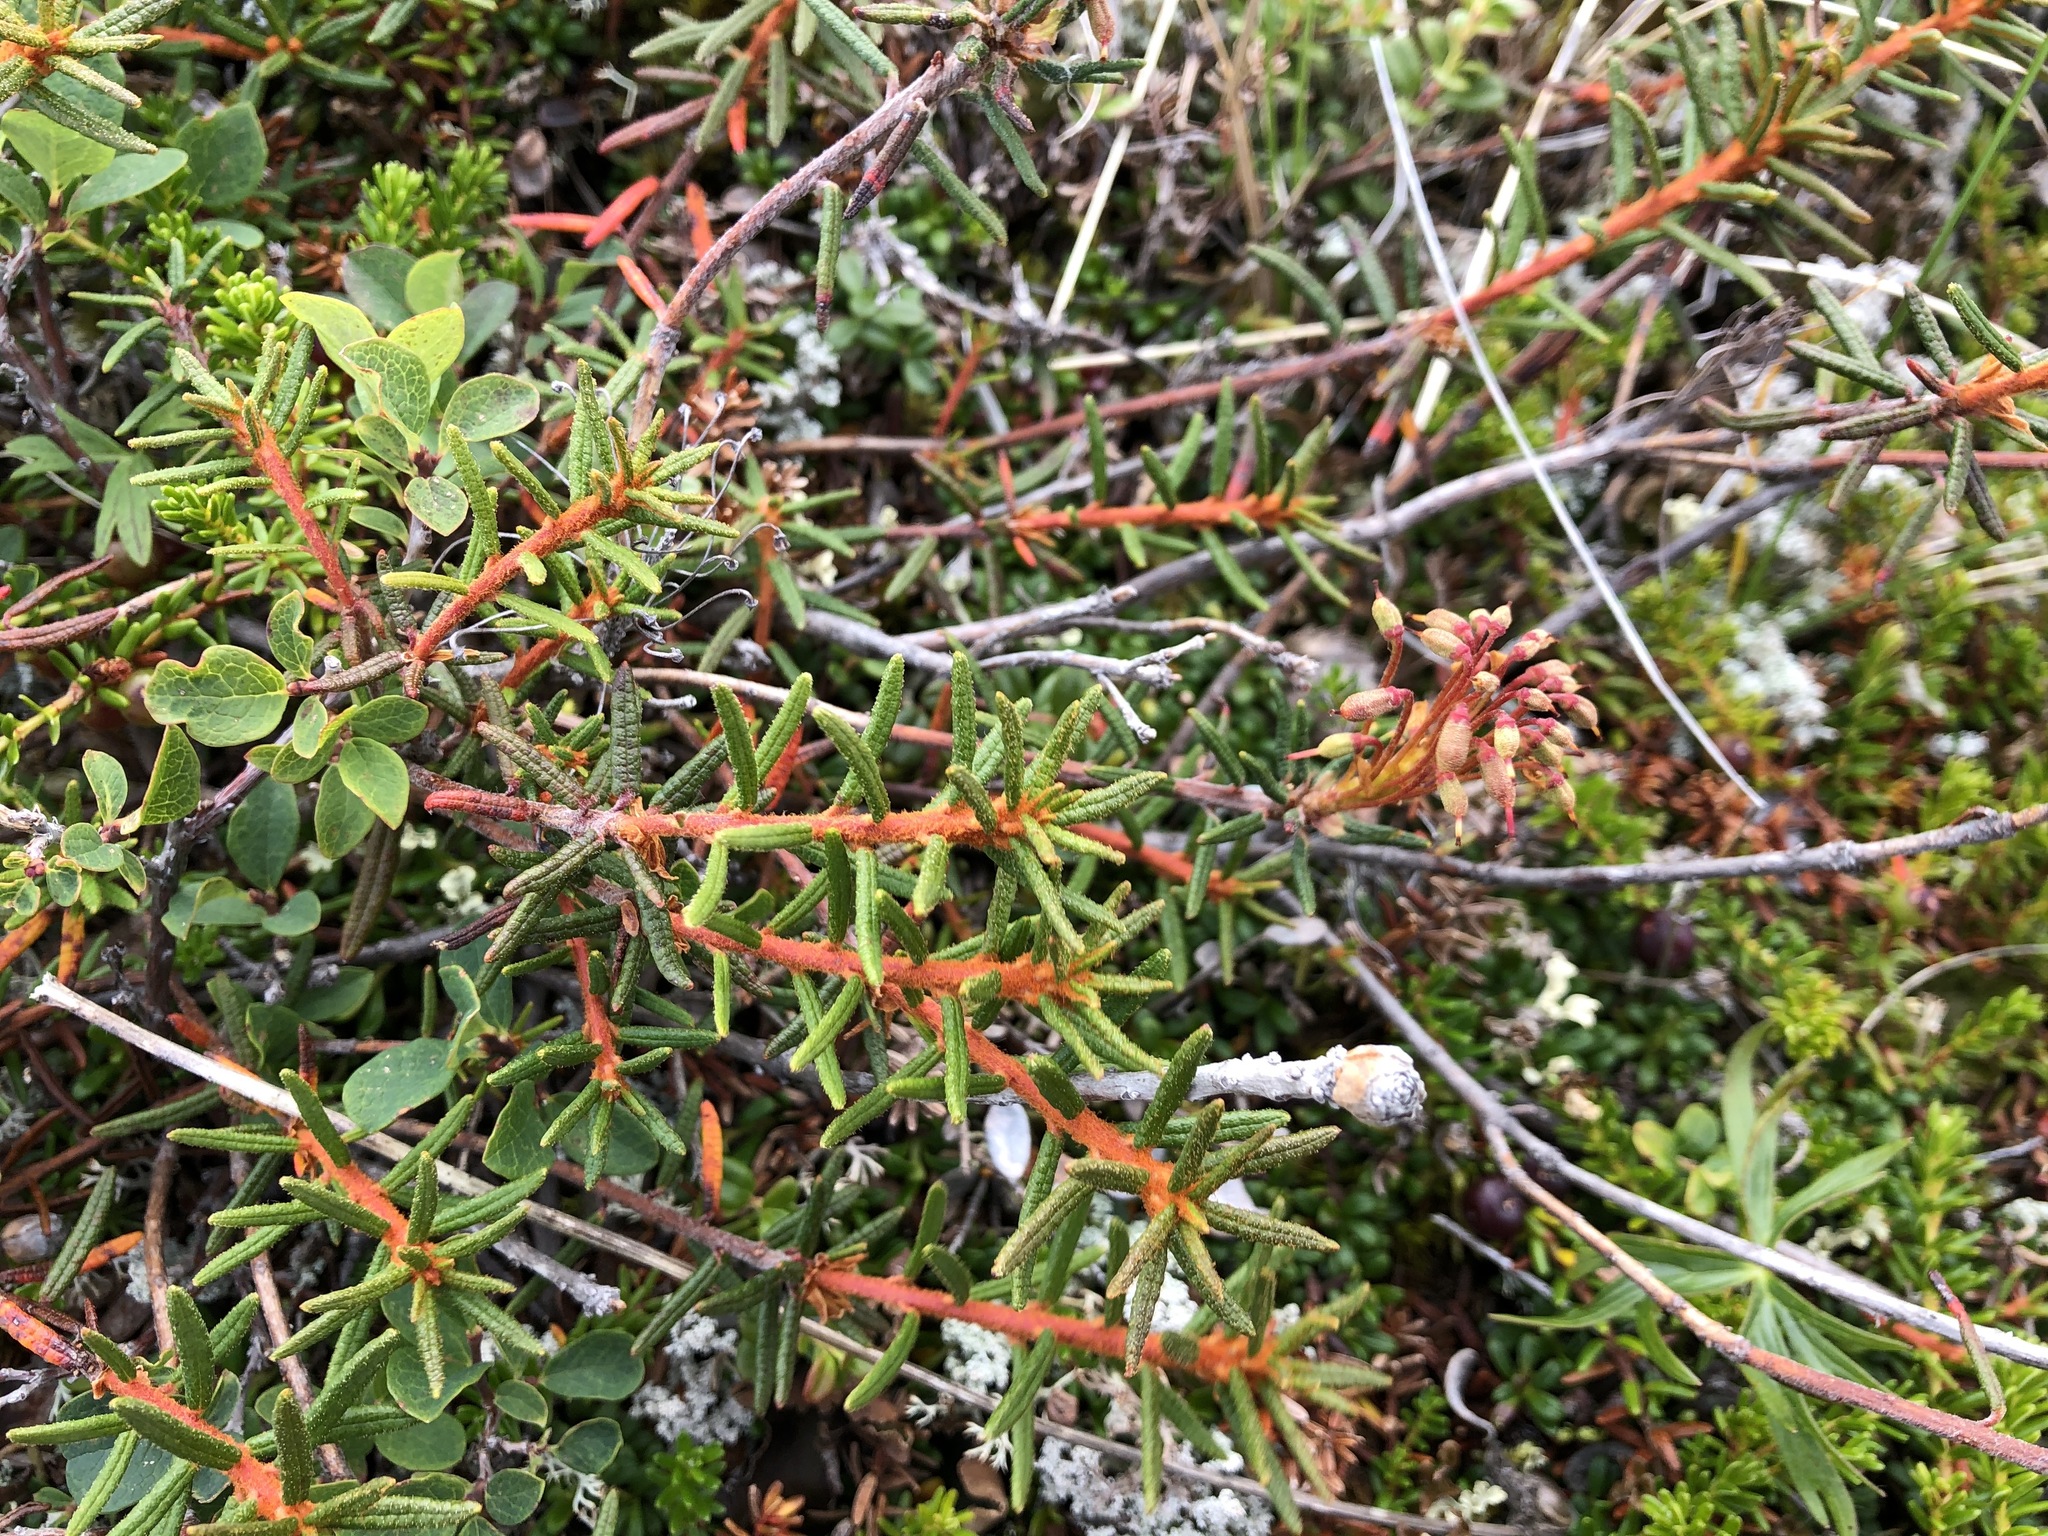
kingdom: Plantae
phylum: Tracheophyta
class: Magnoliopsida
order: Ericales
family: Ericaceae
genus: Rhododendron
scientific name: Rhododendron tomentosum
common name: Marsh labrador tea
